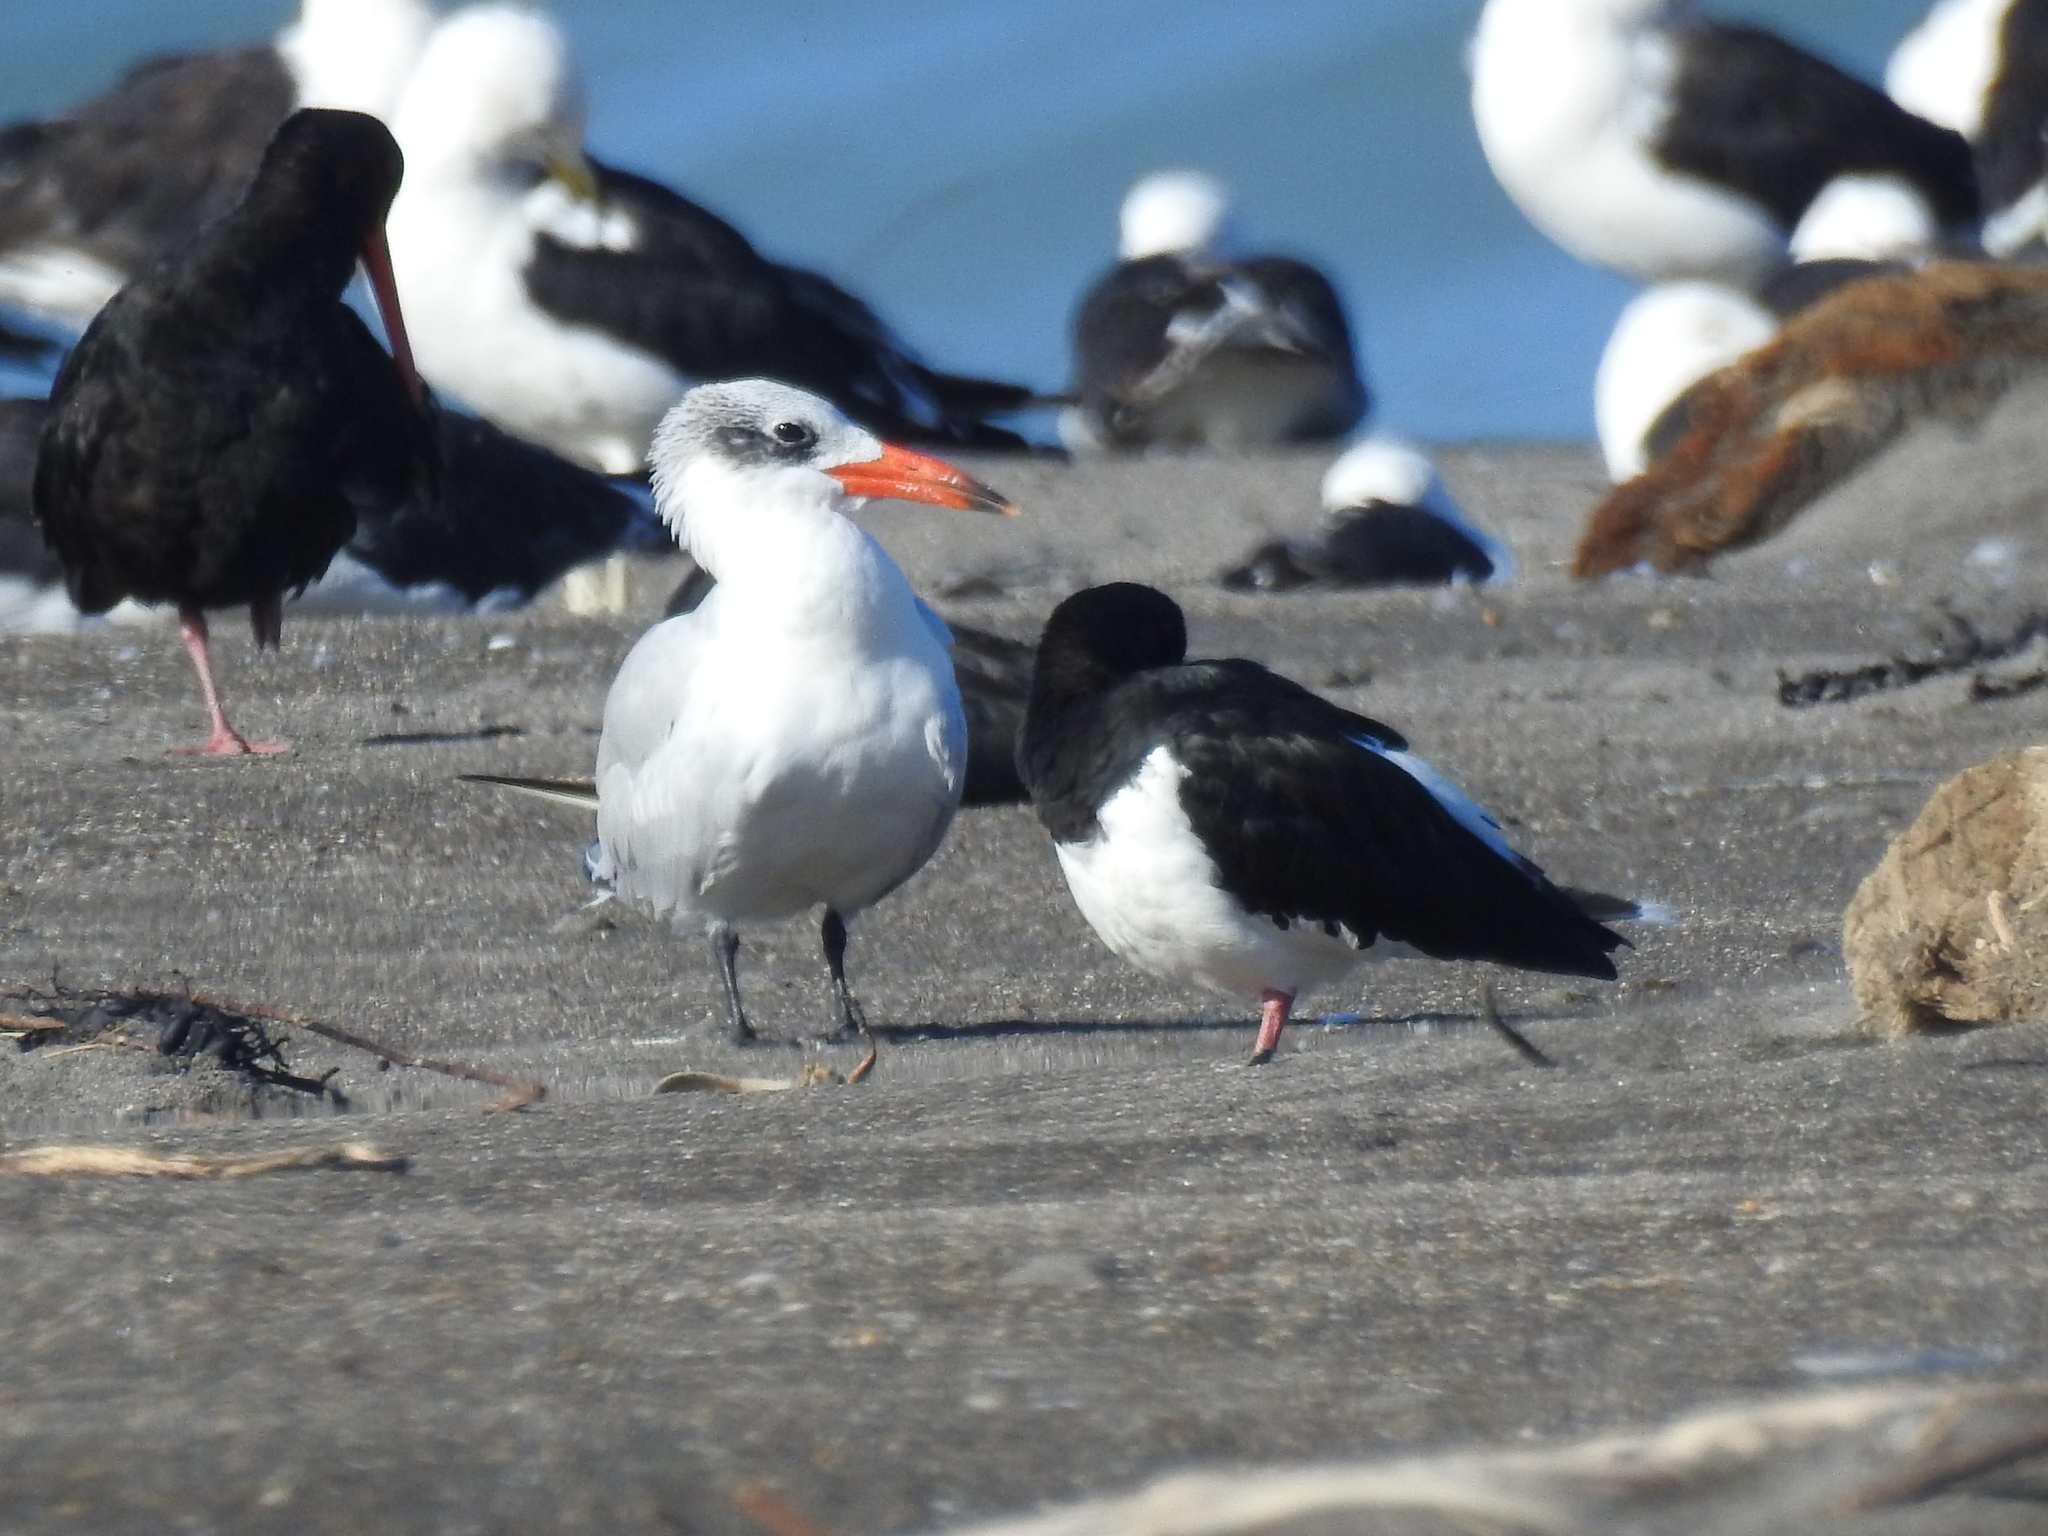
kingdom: Animalia
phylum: Chordata
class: Aves
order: Charadriiformes
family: Laridae
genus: Hydroprogne
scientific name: Hydroprogne caspia
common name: Caspian tern
